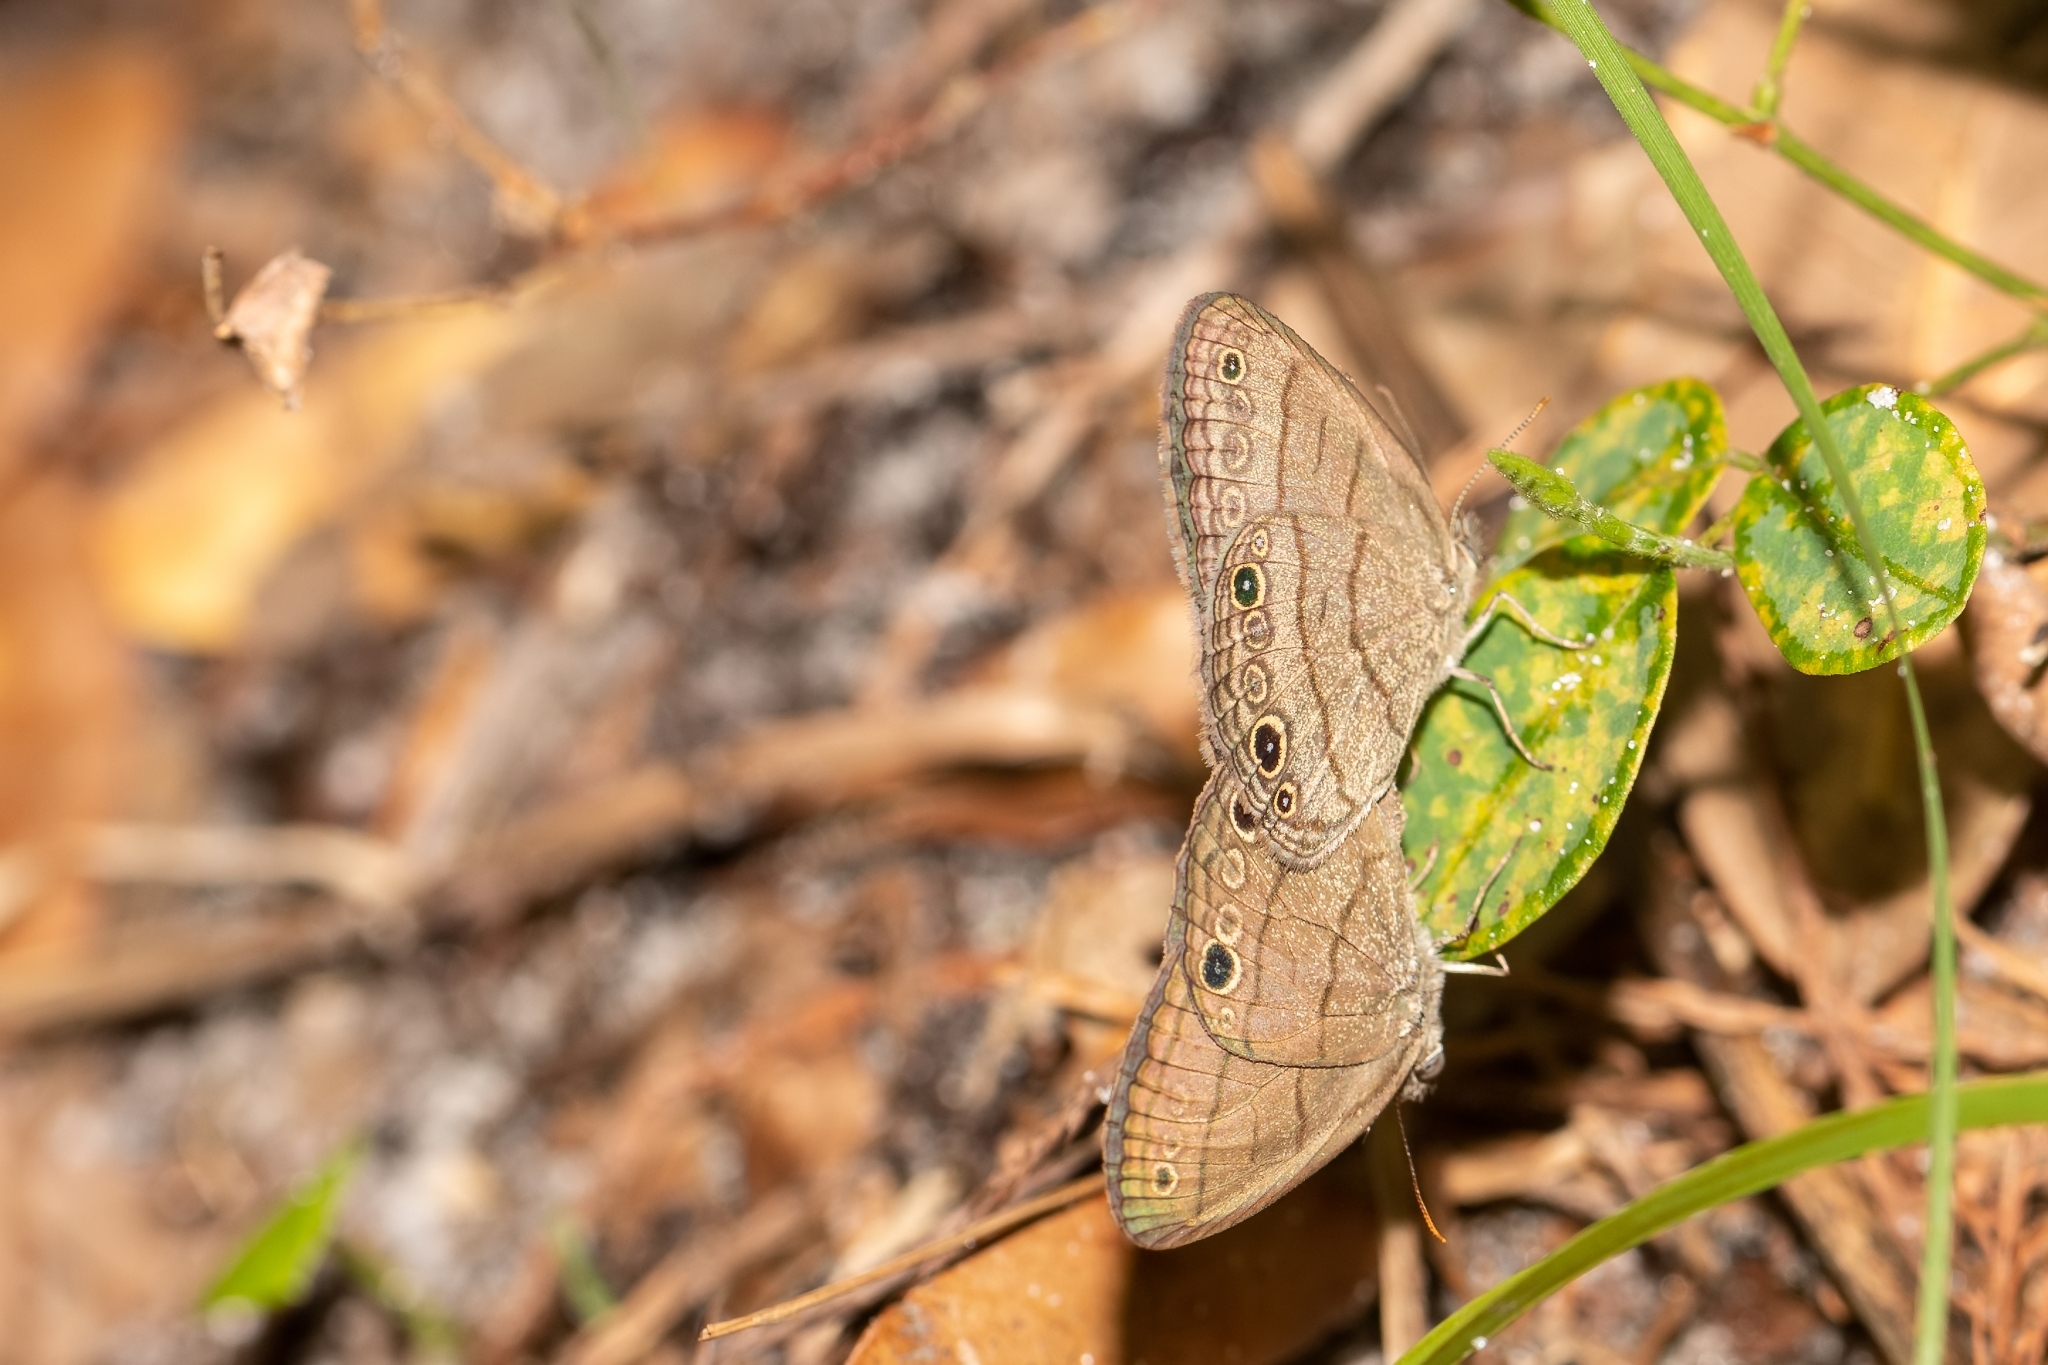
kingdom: Animalia
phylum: Arthropoda
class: Insecta
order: Lepidoptera
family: Nymphalidae
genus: Hermeuptychia
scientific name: Hermeuptychia hermes
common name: Hermes satyr
